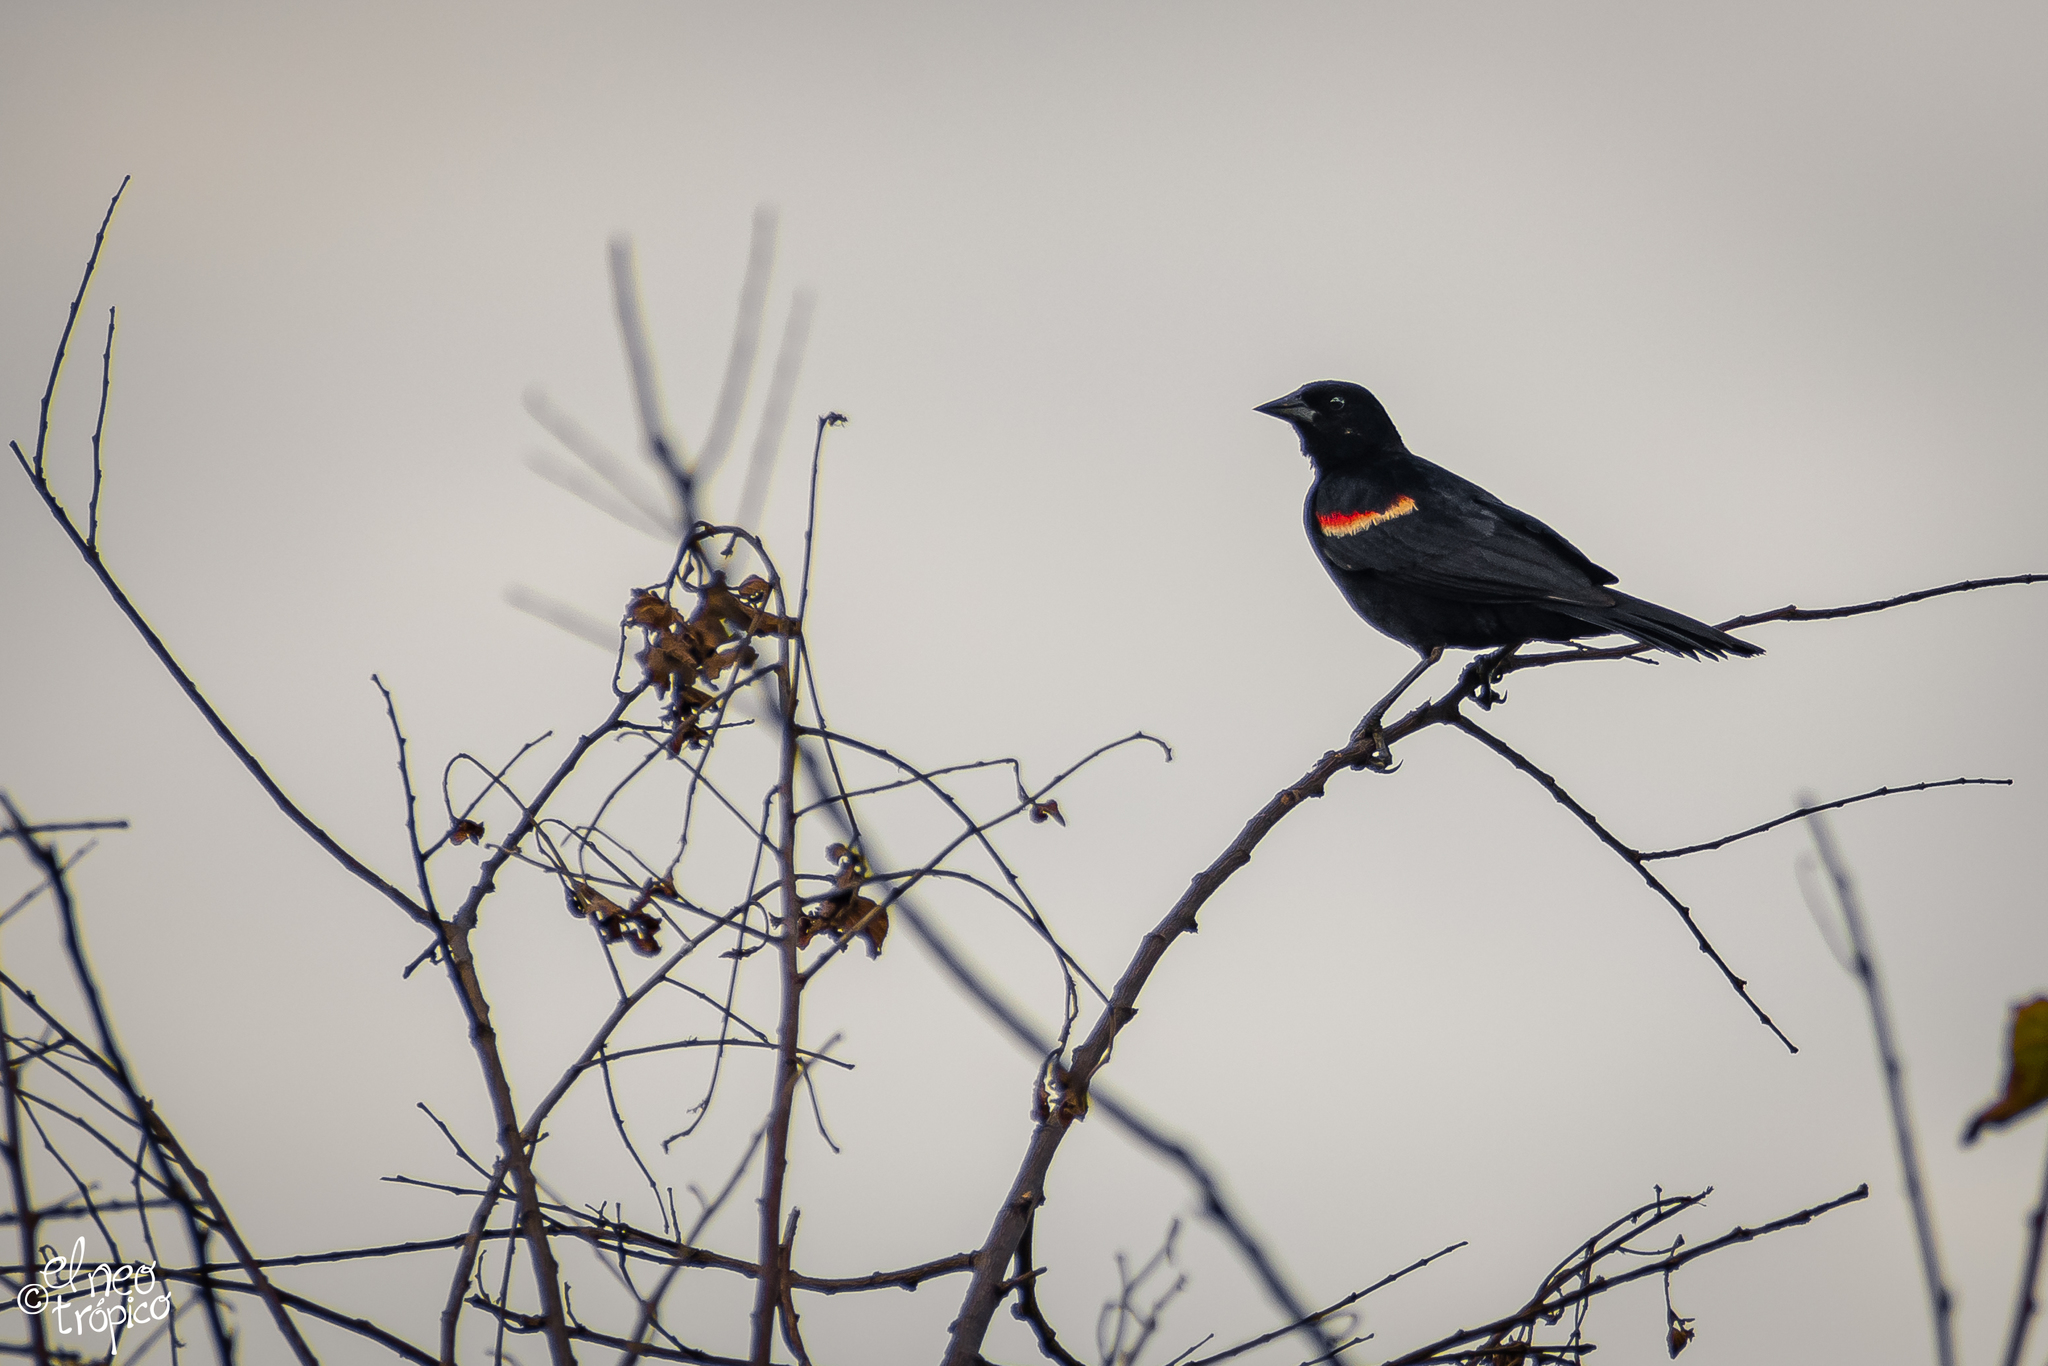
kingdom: Animalia
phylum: Chordata
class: Aves
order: Passeriformes
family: Icteridae
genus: Agelaius
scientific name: Agelaius phoeniceus
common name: Red-winged blackbird
